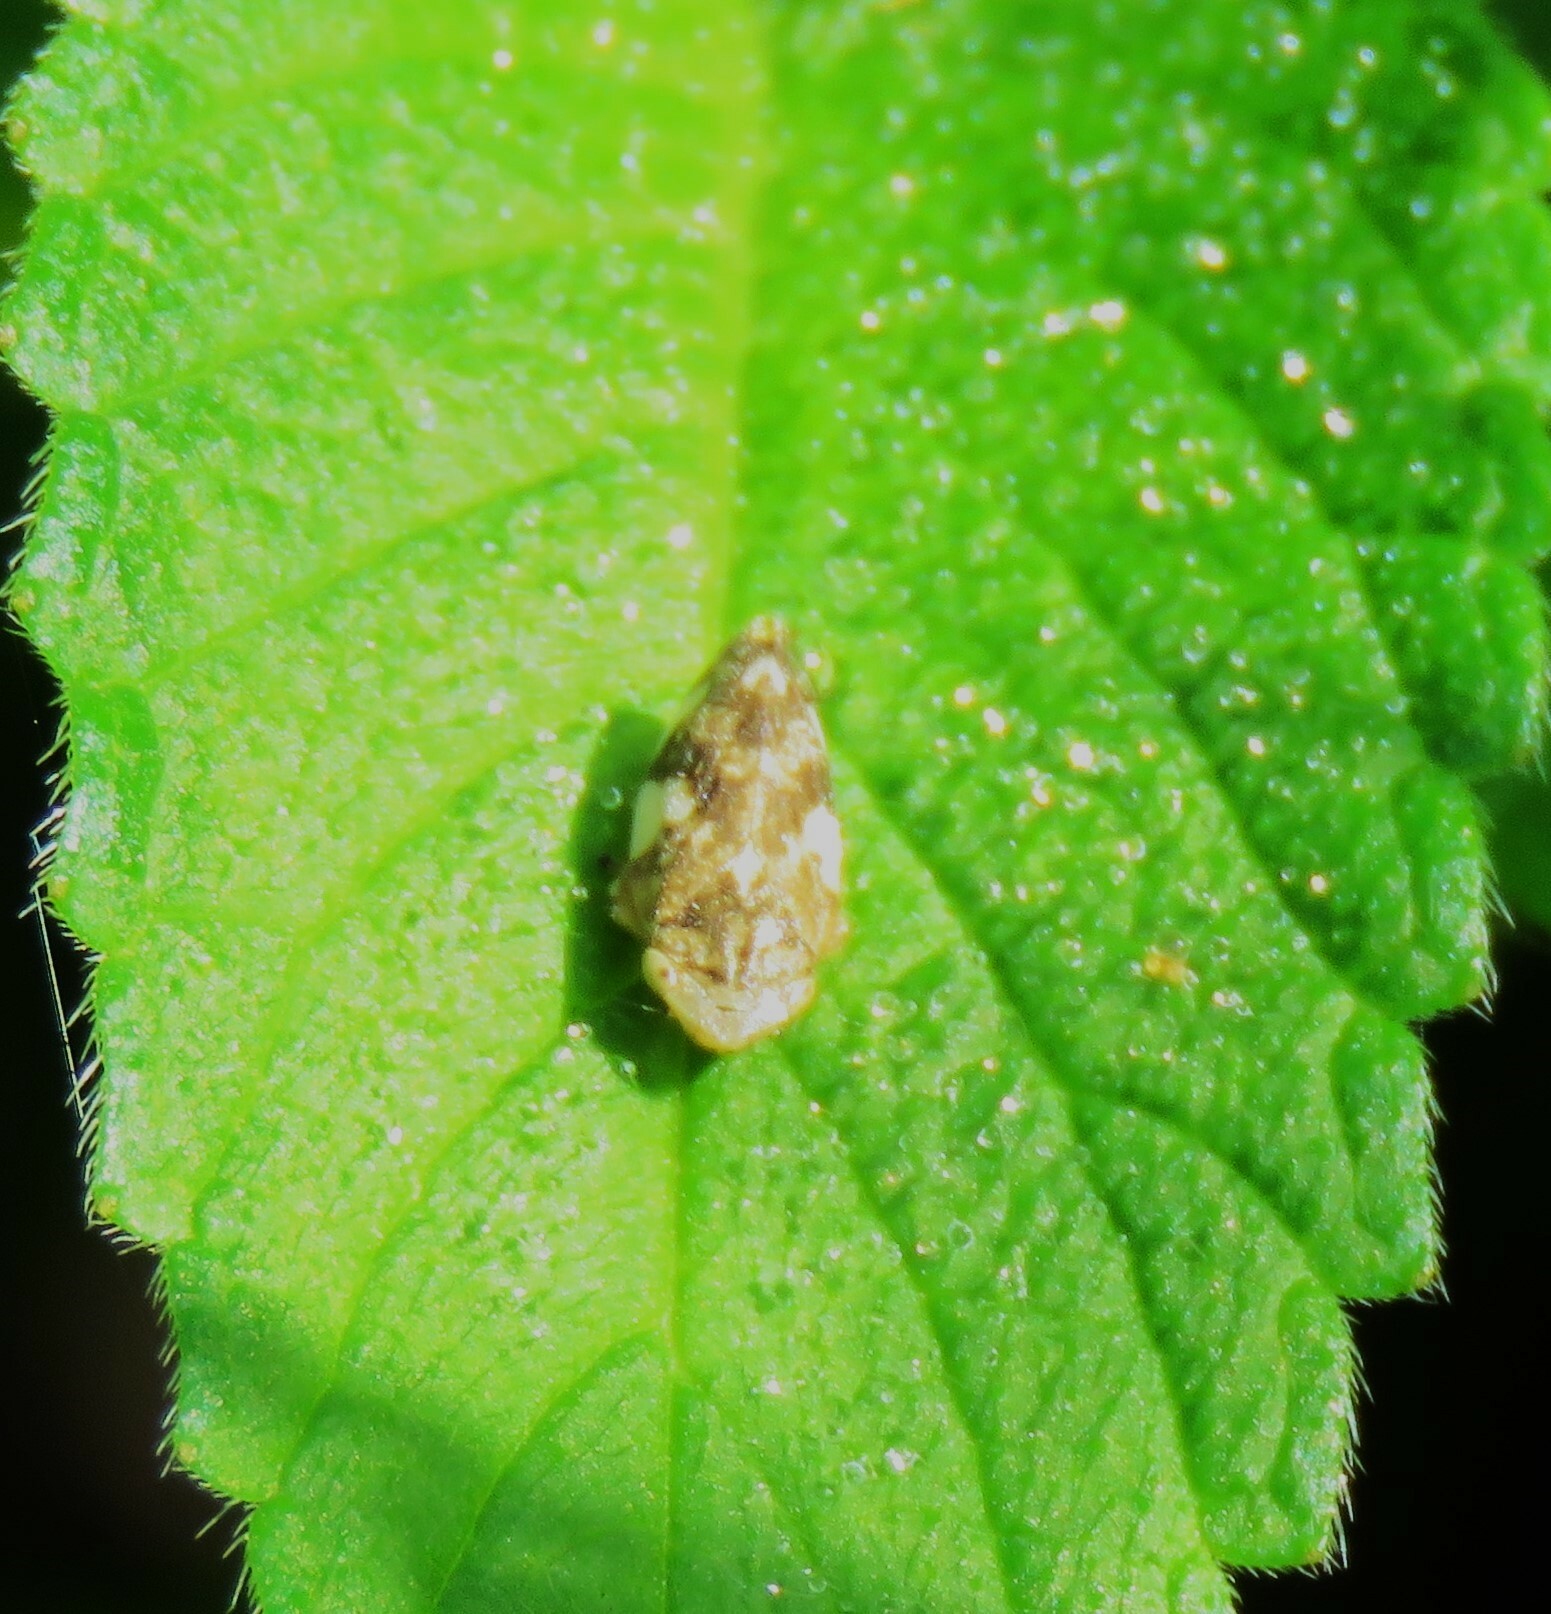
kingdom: Animalia
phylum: Arthropoda
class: Insecta
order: Hemiptera
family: Aphrophoridae
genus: Philaenus
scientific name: Philaenus spumarius
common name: Meadow spittlebug
